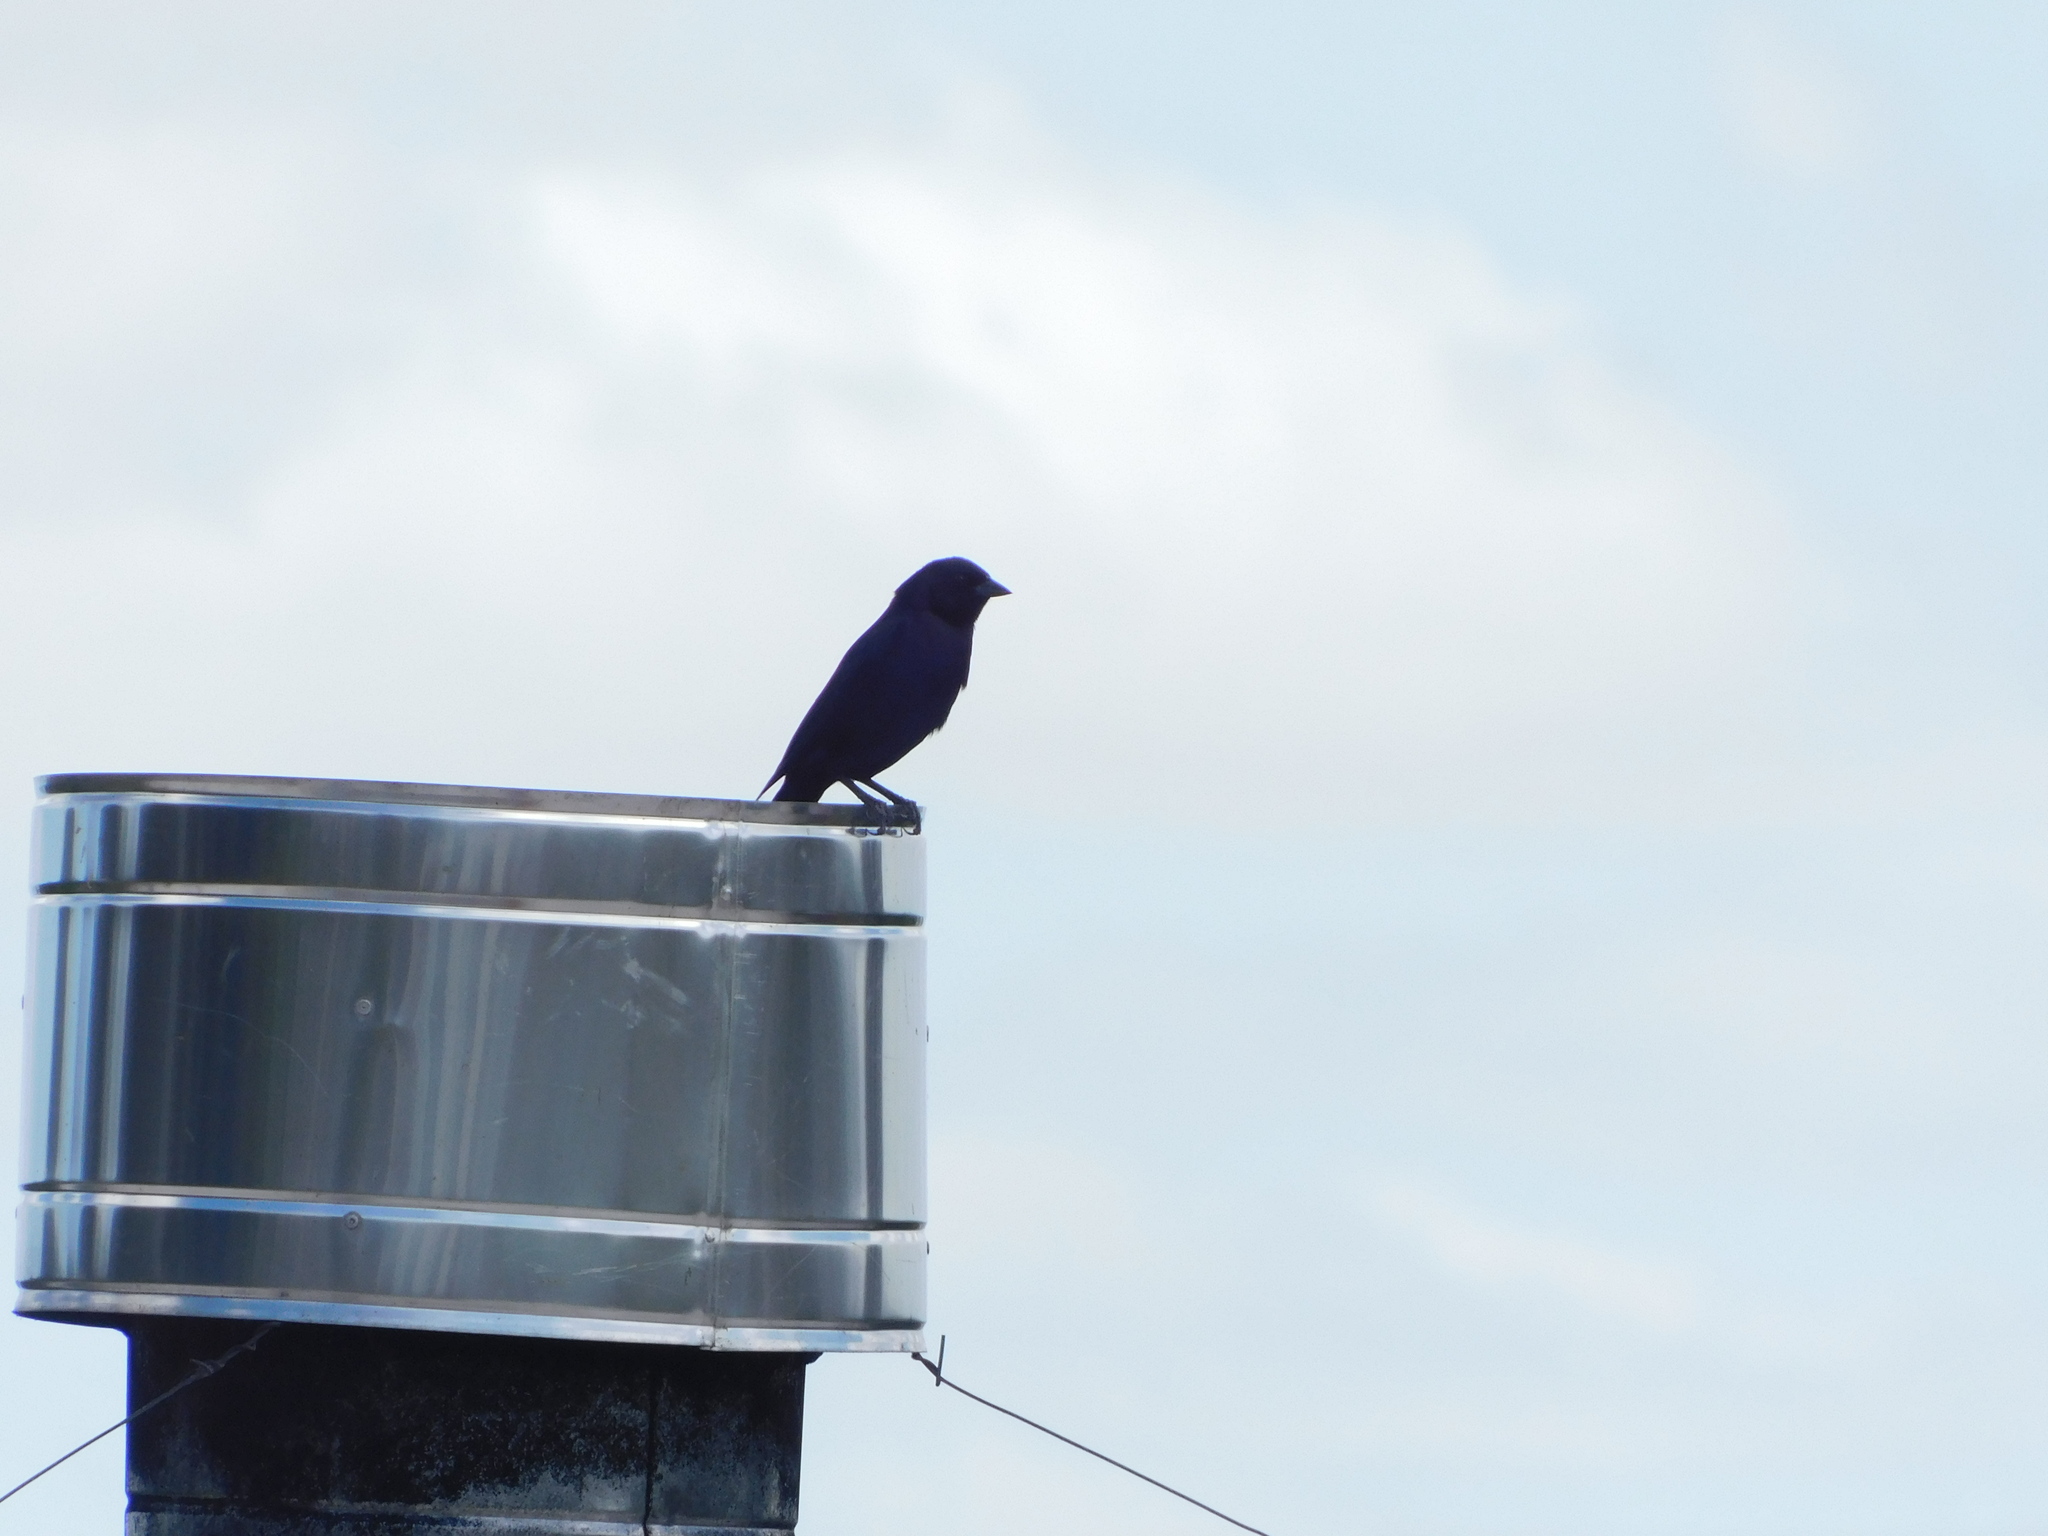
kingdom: Animalia
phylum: Chordata
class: Aves
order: Passeriformes
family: Icteridae
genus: Molothrus
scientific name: Molothrus bonariensis
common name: Shiny cowbird
